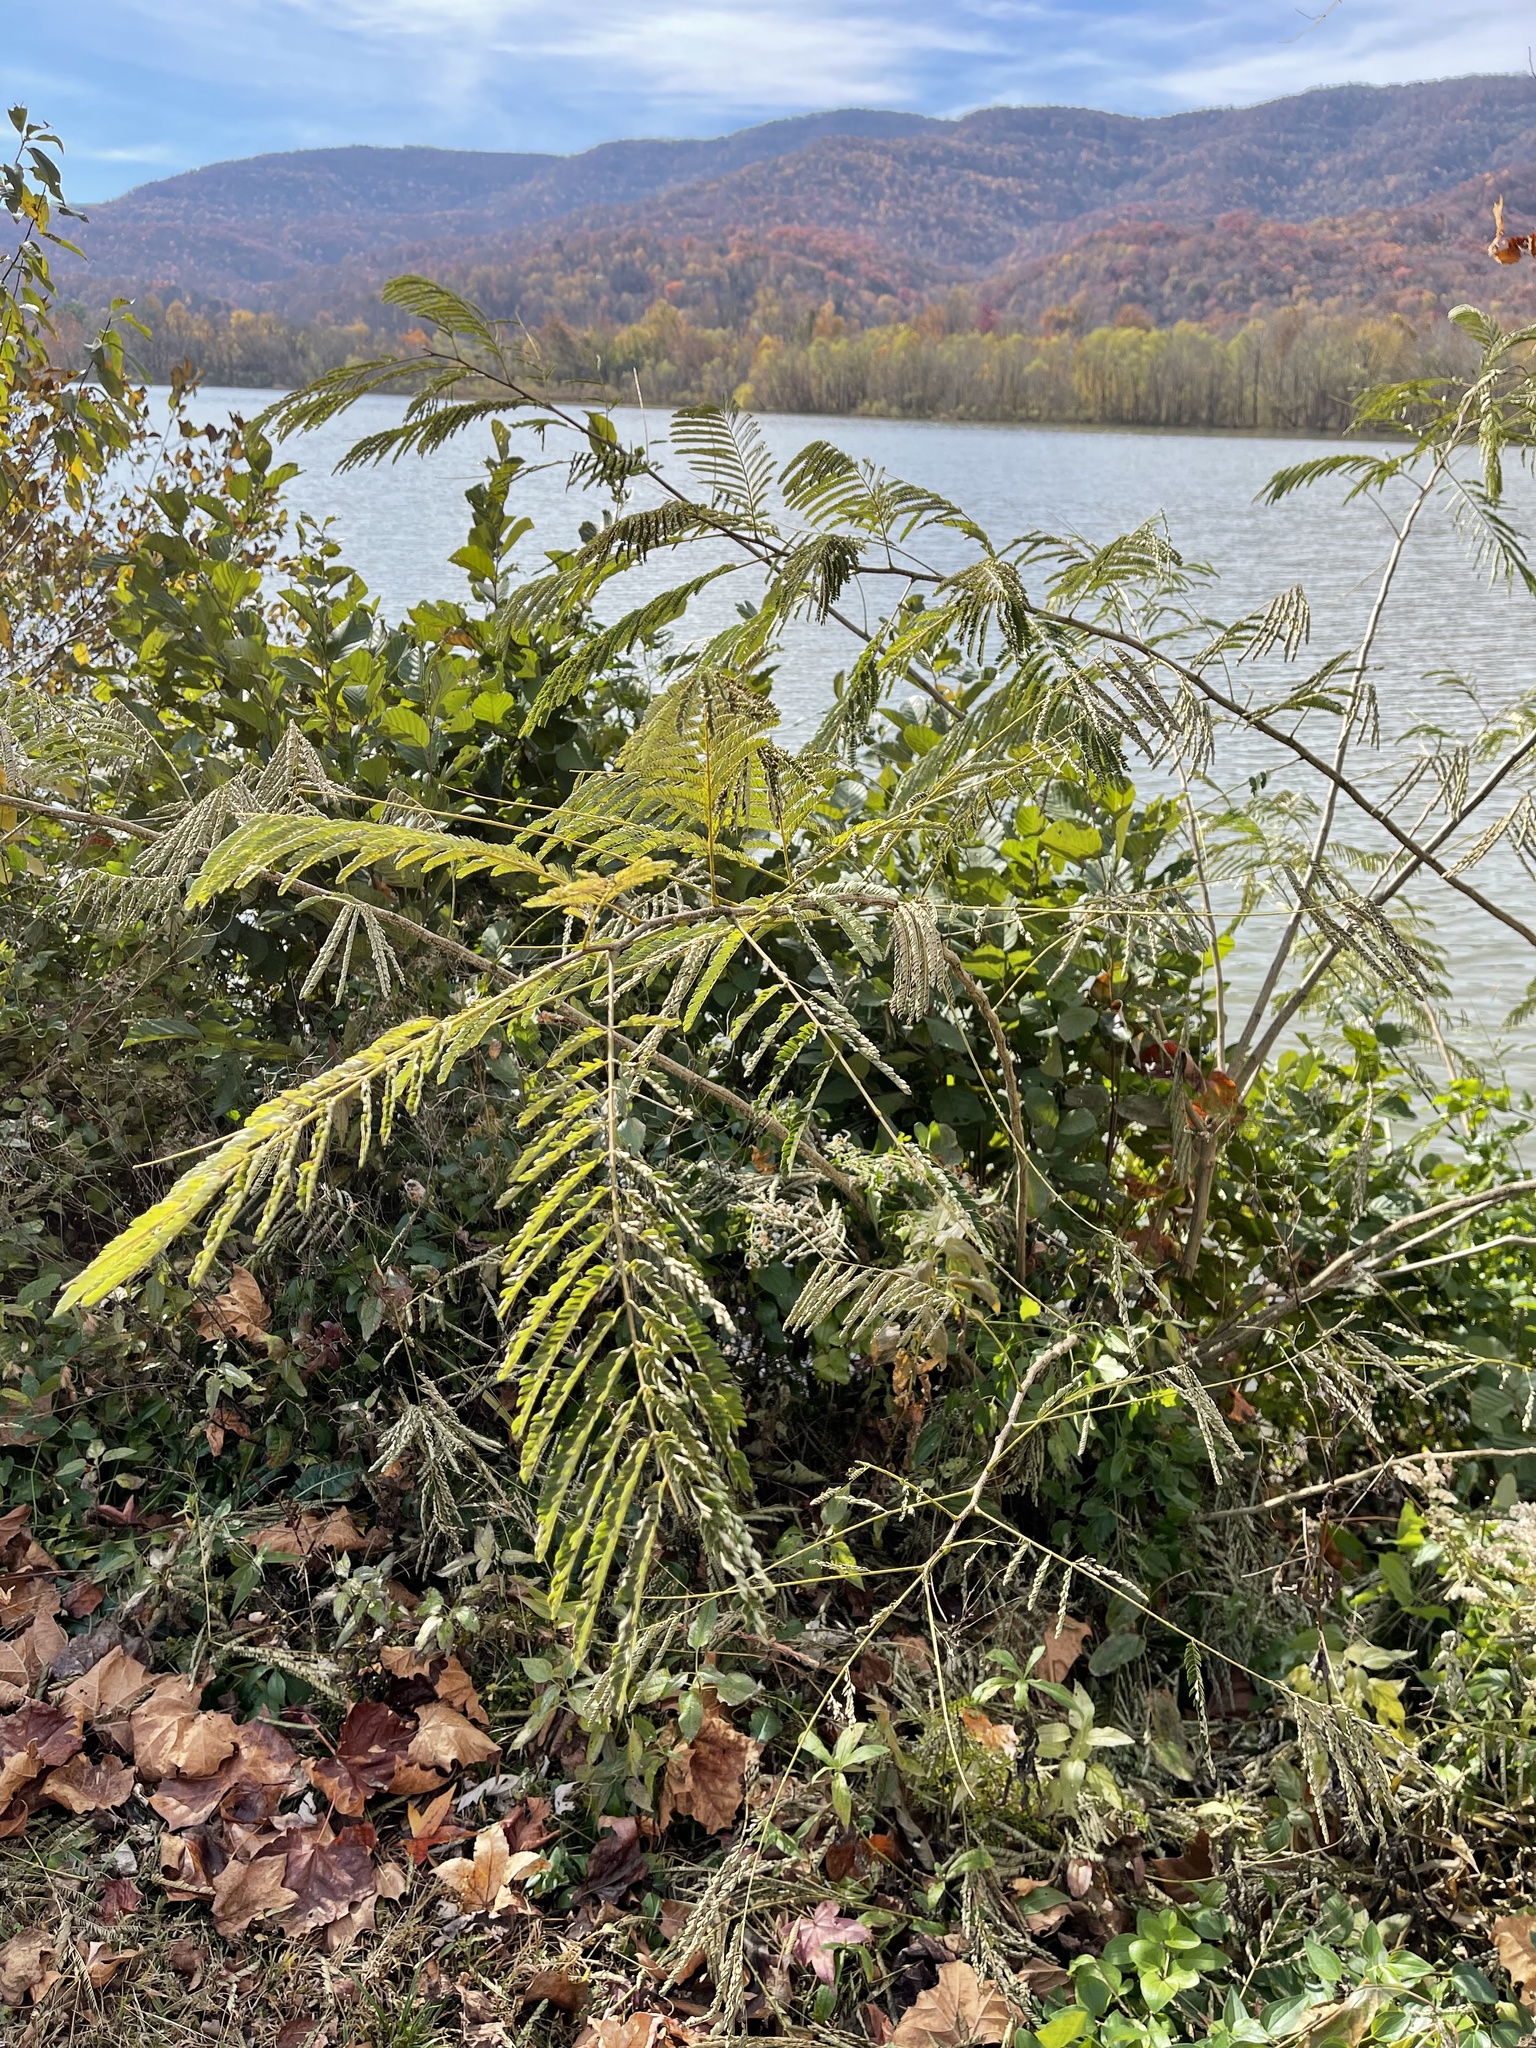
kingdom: Plantae
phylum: Tracheophyta
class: Magnoliopsida
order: Fabales
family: Fabaceae
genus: Albizia
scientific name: Albizia julibrissin
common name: Silktree
